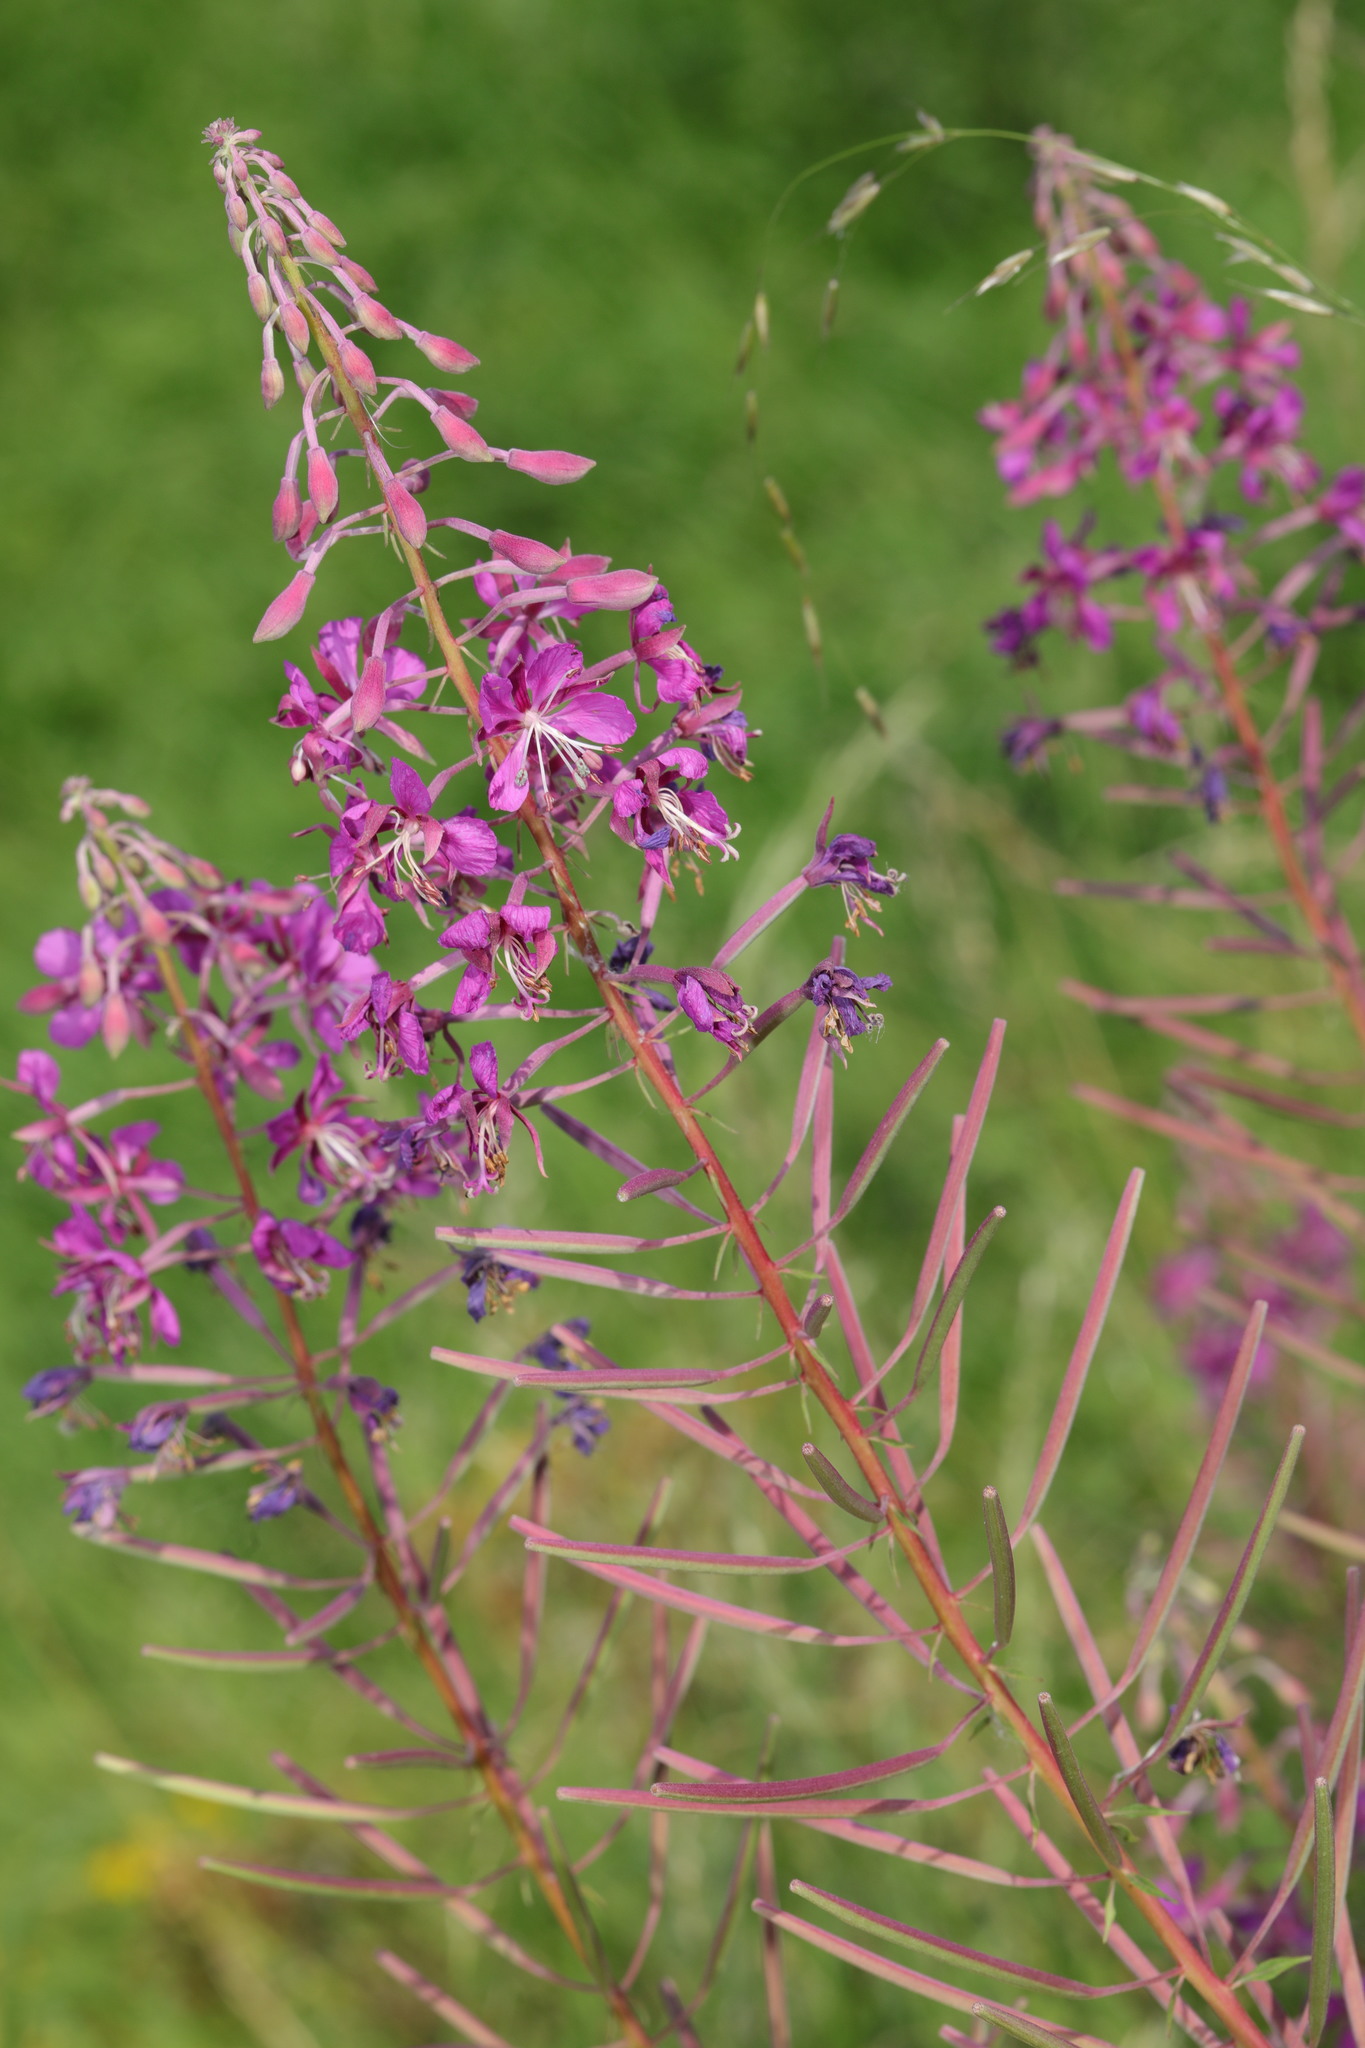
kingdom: Plantae
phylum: Tracheophyta
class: Magnoliopsida
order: Myrtales
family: Onagraceae
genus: Chamaenerion
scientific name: Chamaenerion angustifolium
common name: Fireweed
